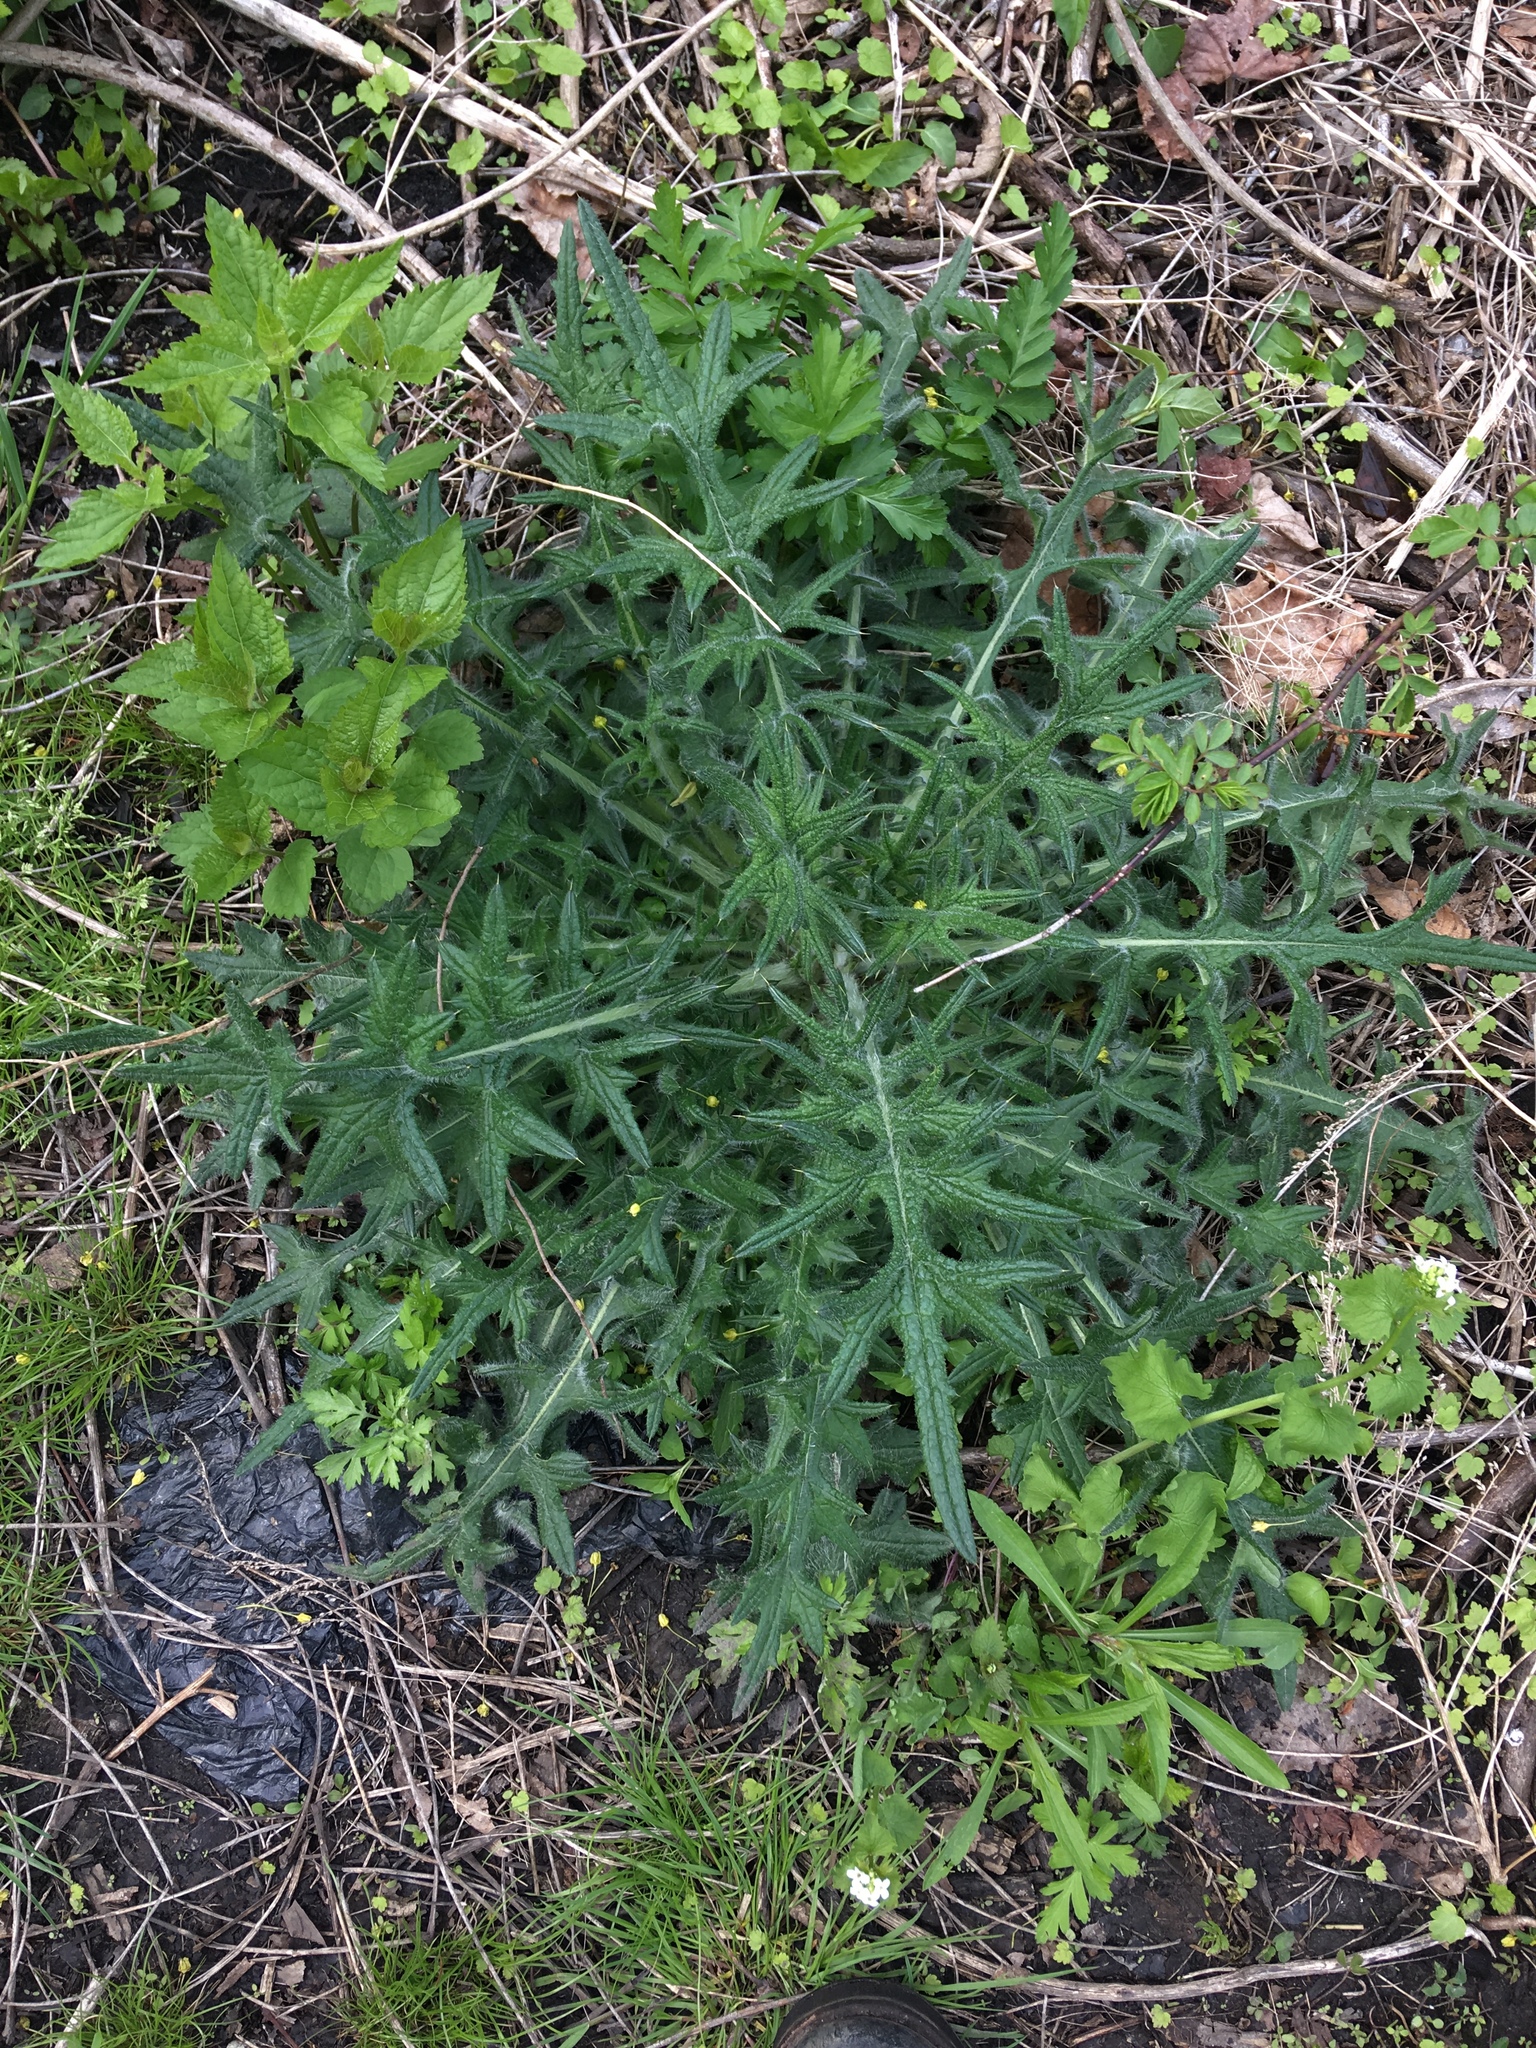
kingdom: Plantae
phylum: Tracheophyta
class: Magnoliopsida
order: Asterales
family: Asteraceae
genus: Cirsium
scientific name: Cirsium vulgare
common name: Bull thistle
